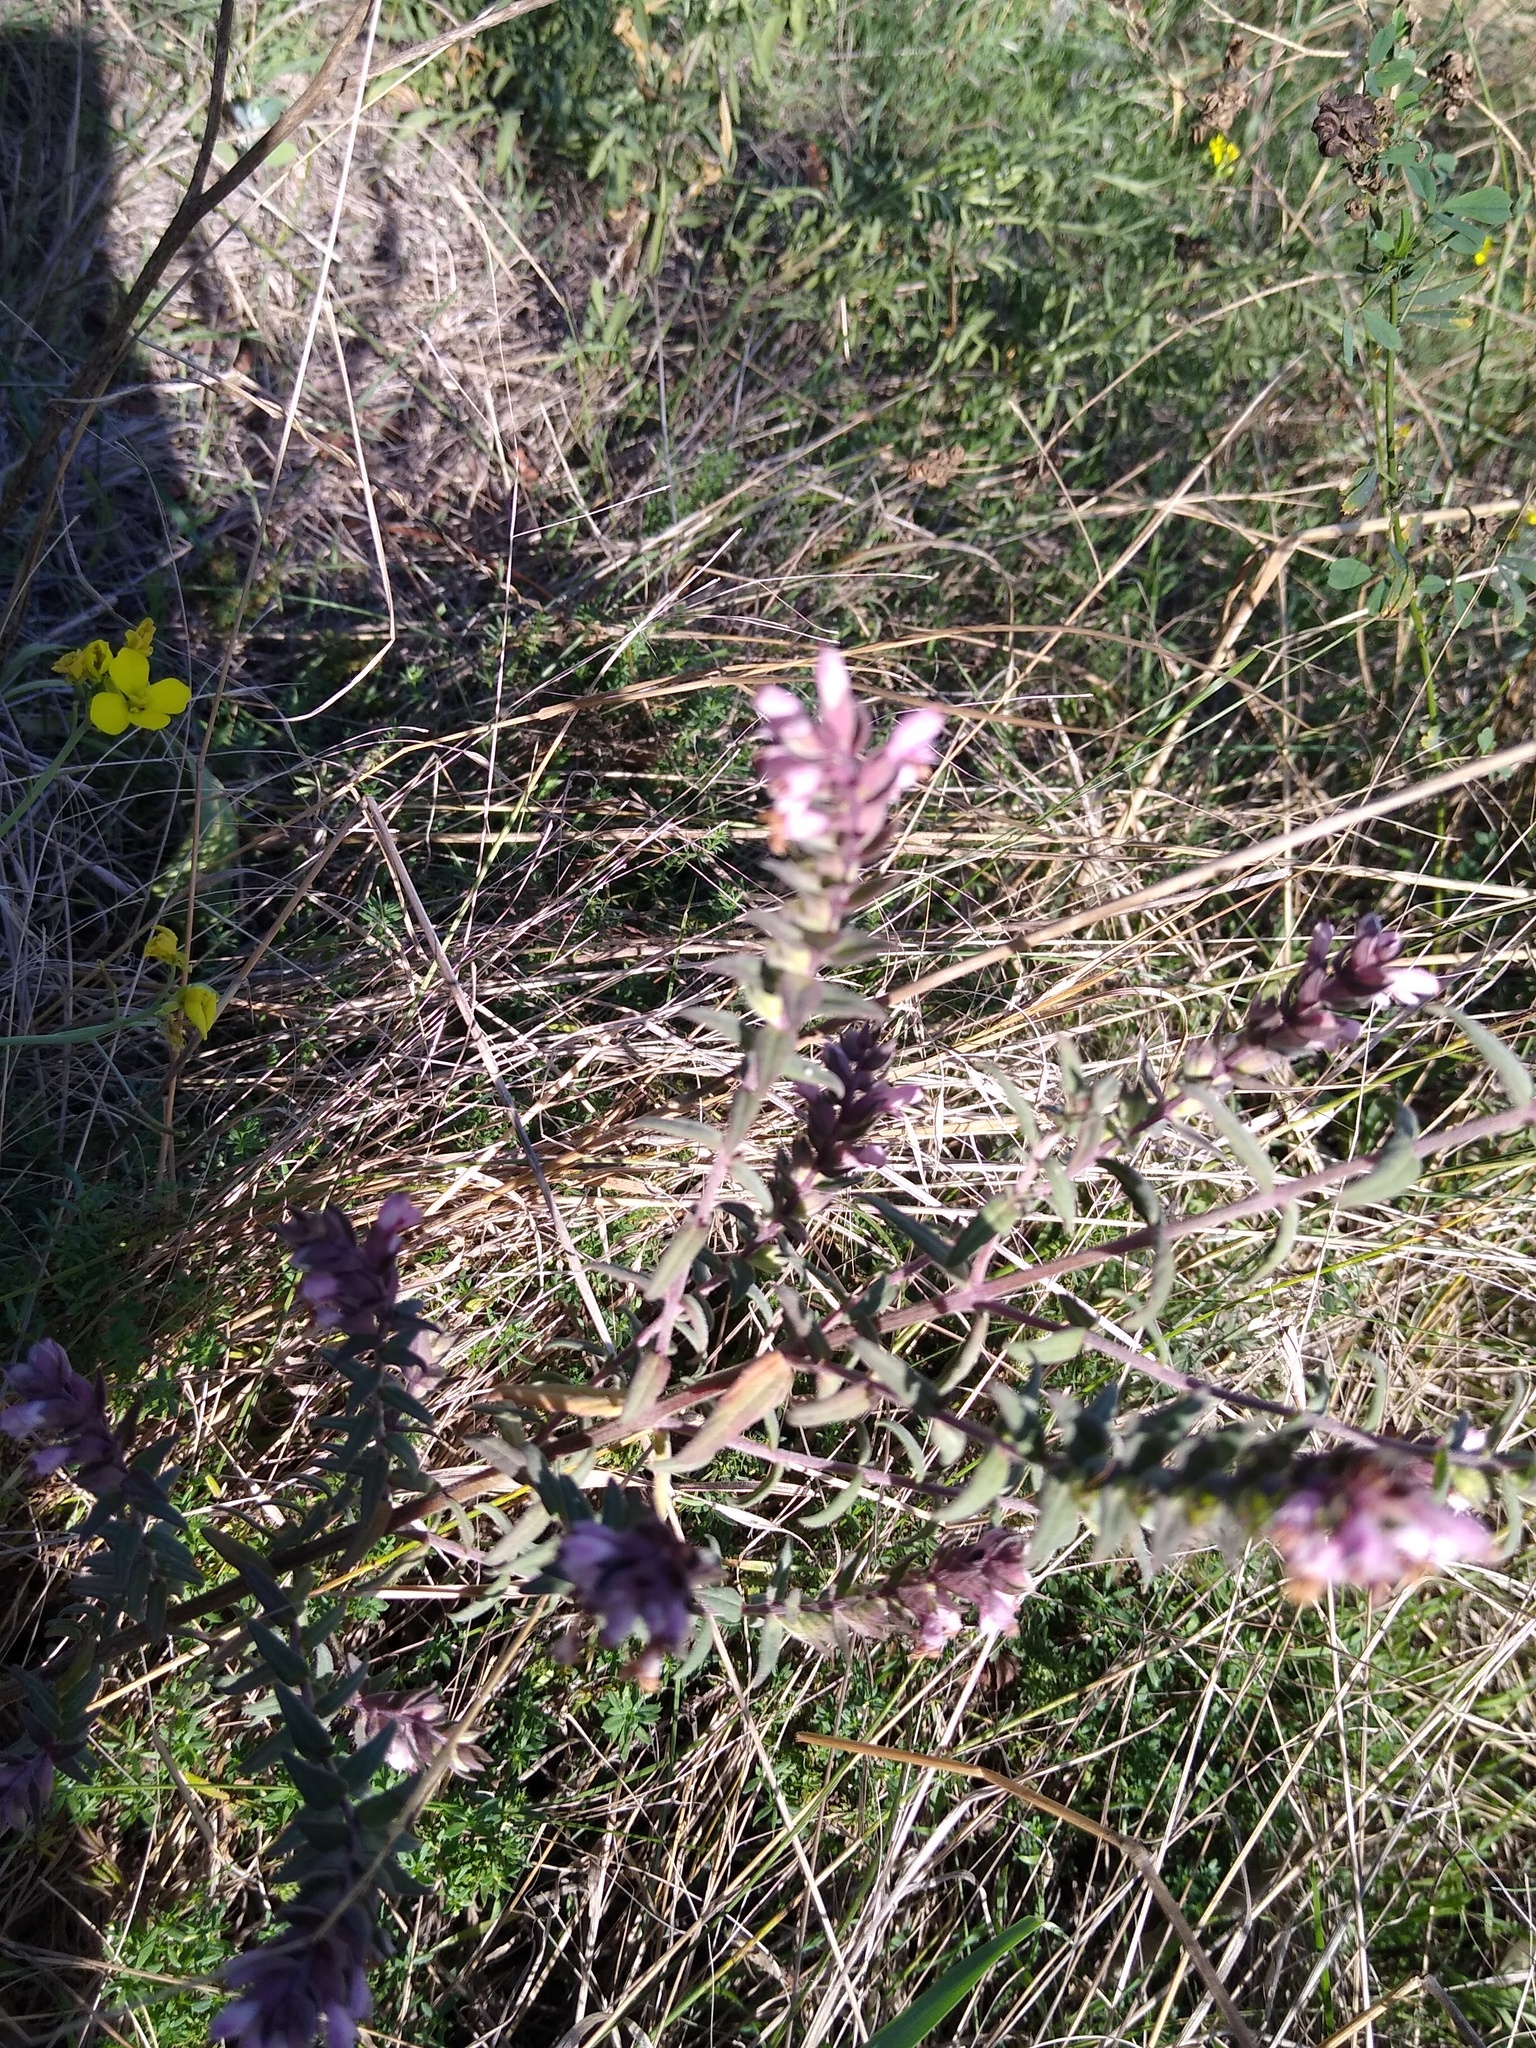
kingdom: Plantae
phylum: Tracheophyta
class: Magnoliopsida
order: Lamiales
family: Orobanchaceae
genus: Odontites
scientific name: Odontites vulgaris
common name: Broomrape
